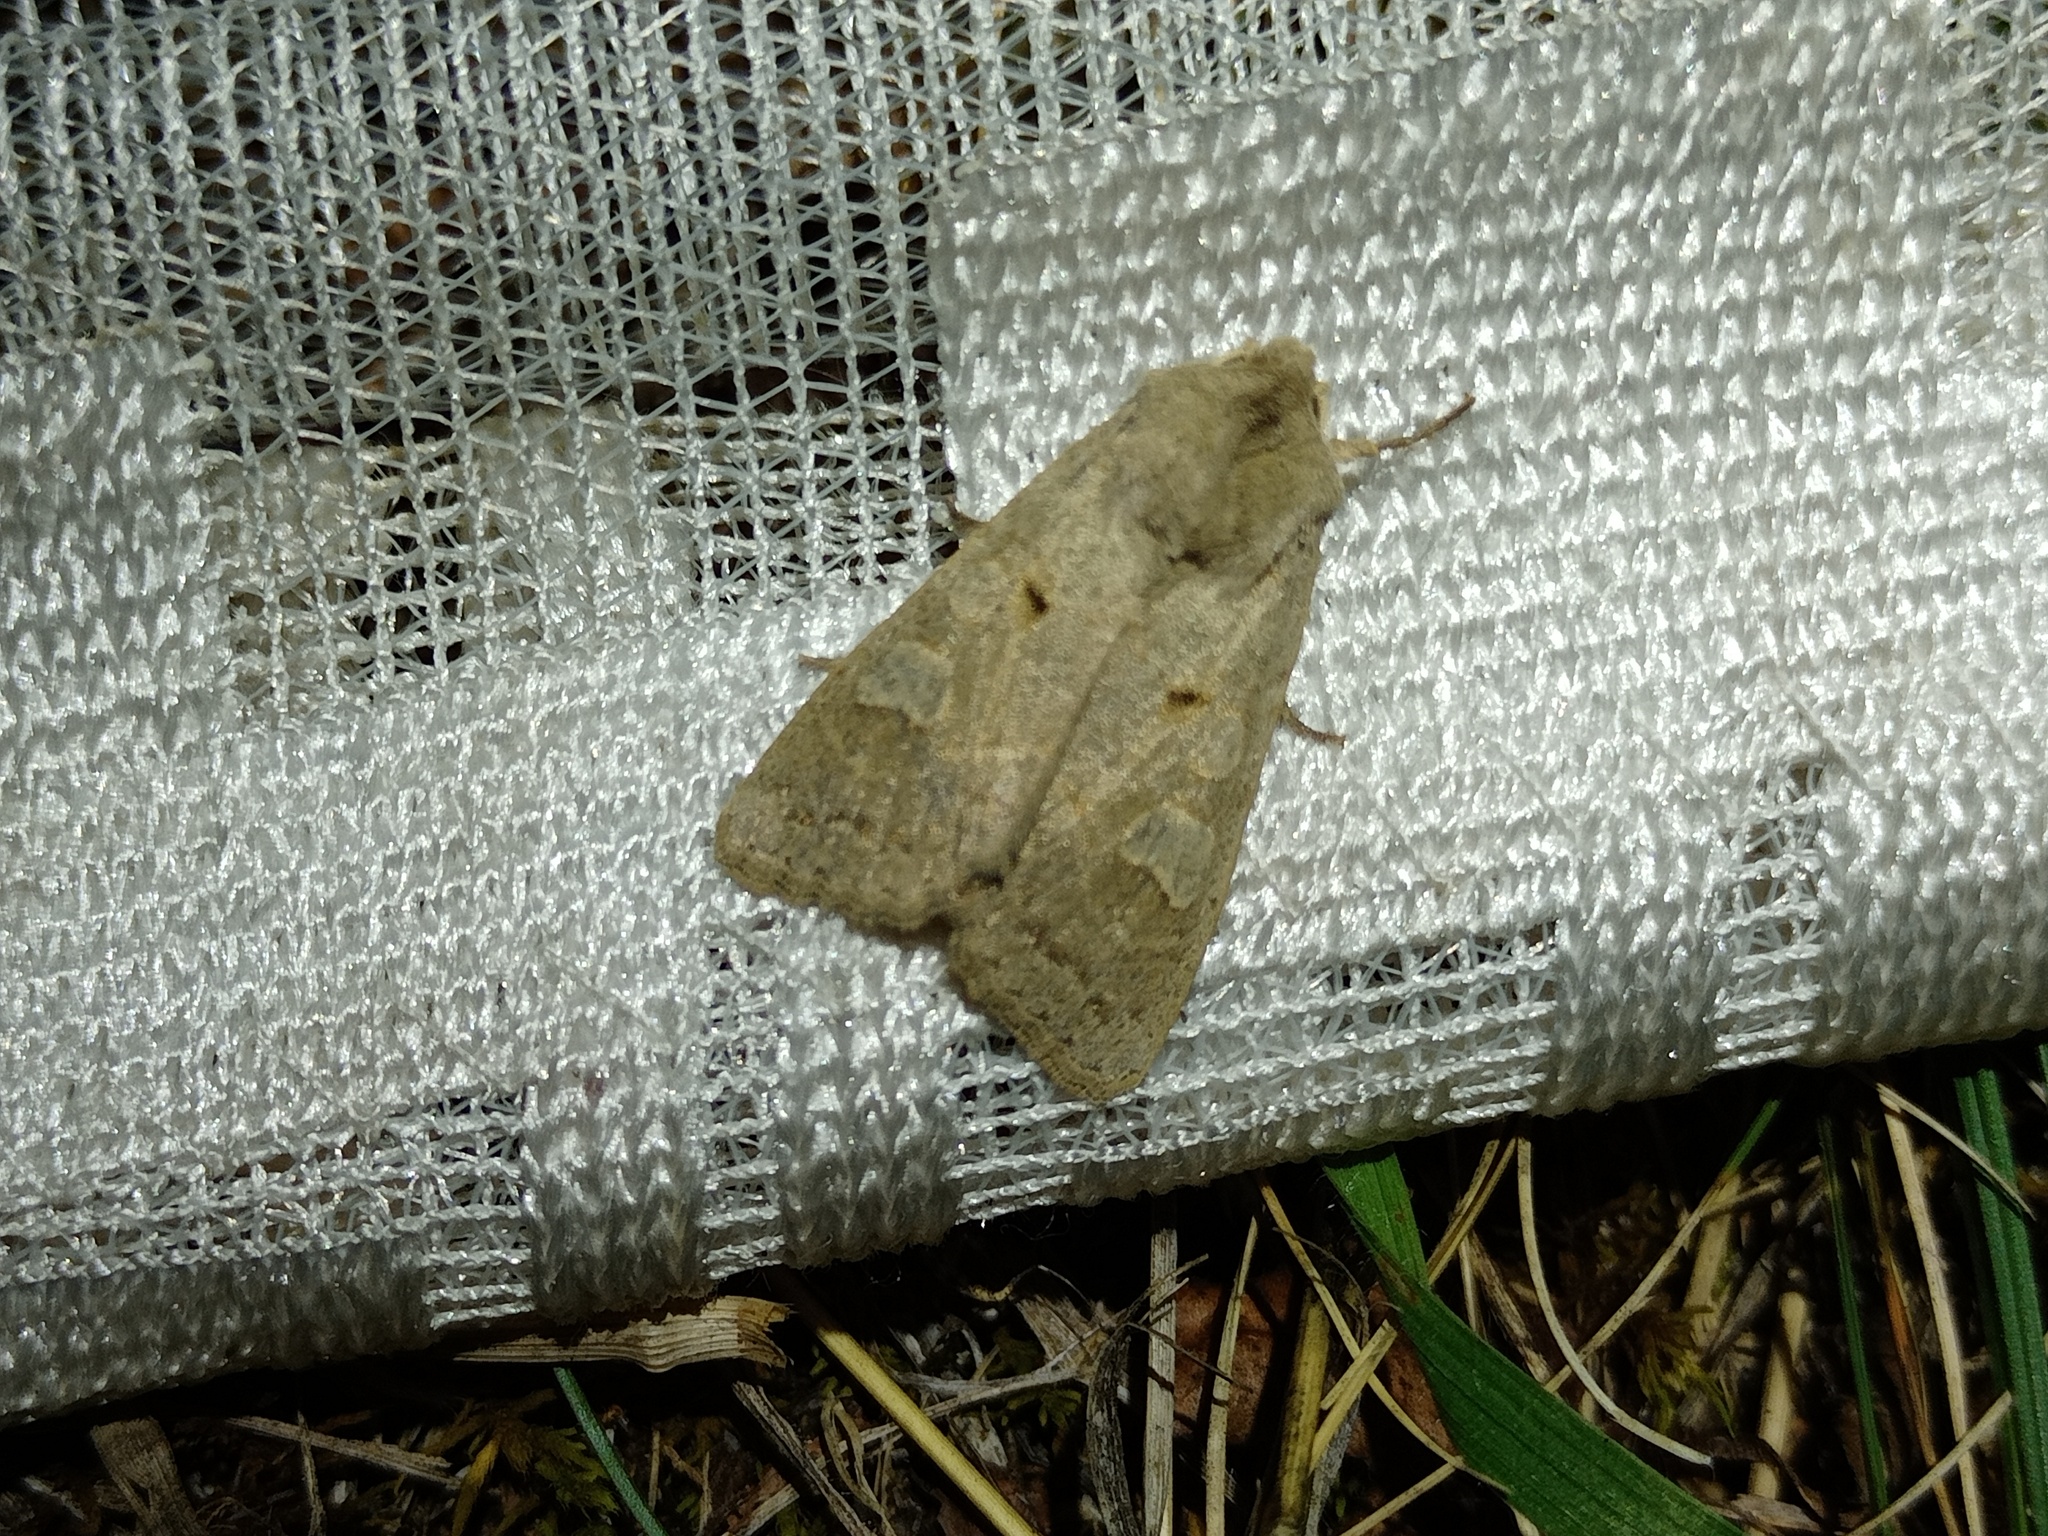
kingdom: Animalia
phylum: Arthropoda
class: Insecta
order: Lepidoptera
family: Noctuidae
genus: Ammoconia
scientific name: Ammoconia caecimacula
